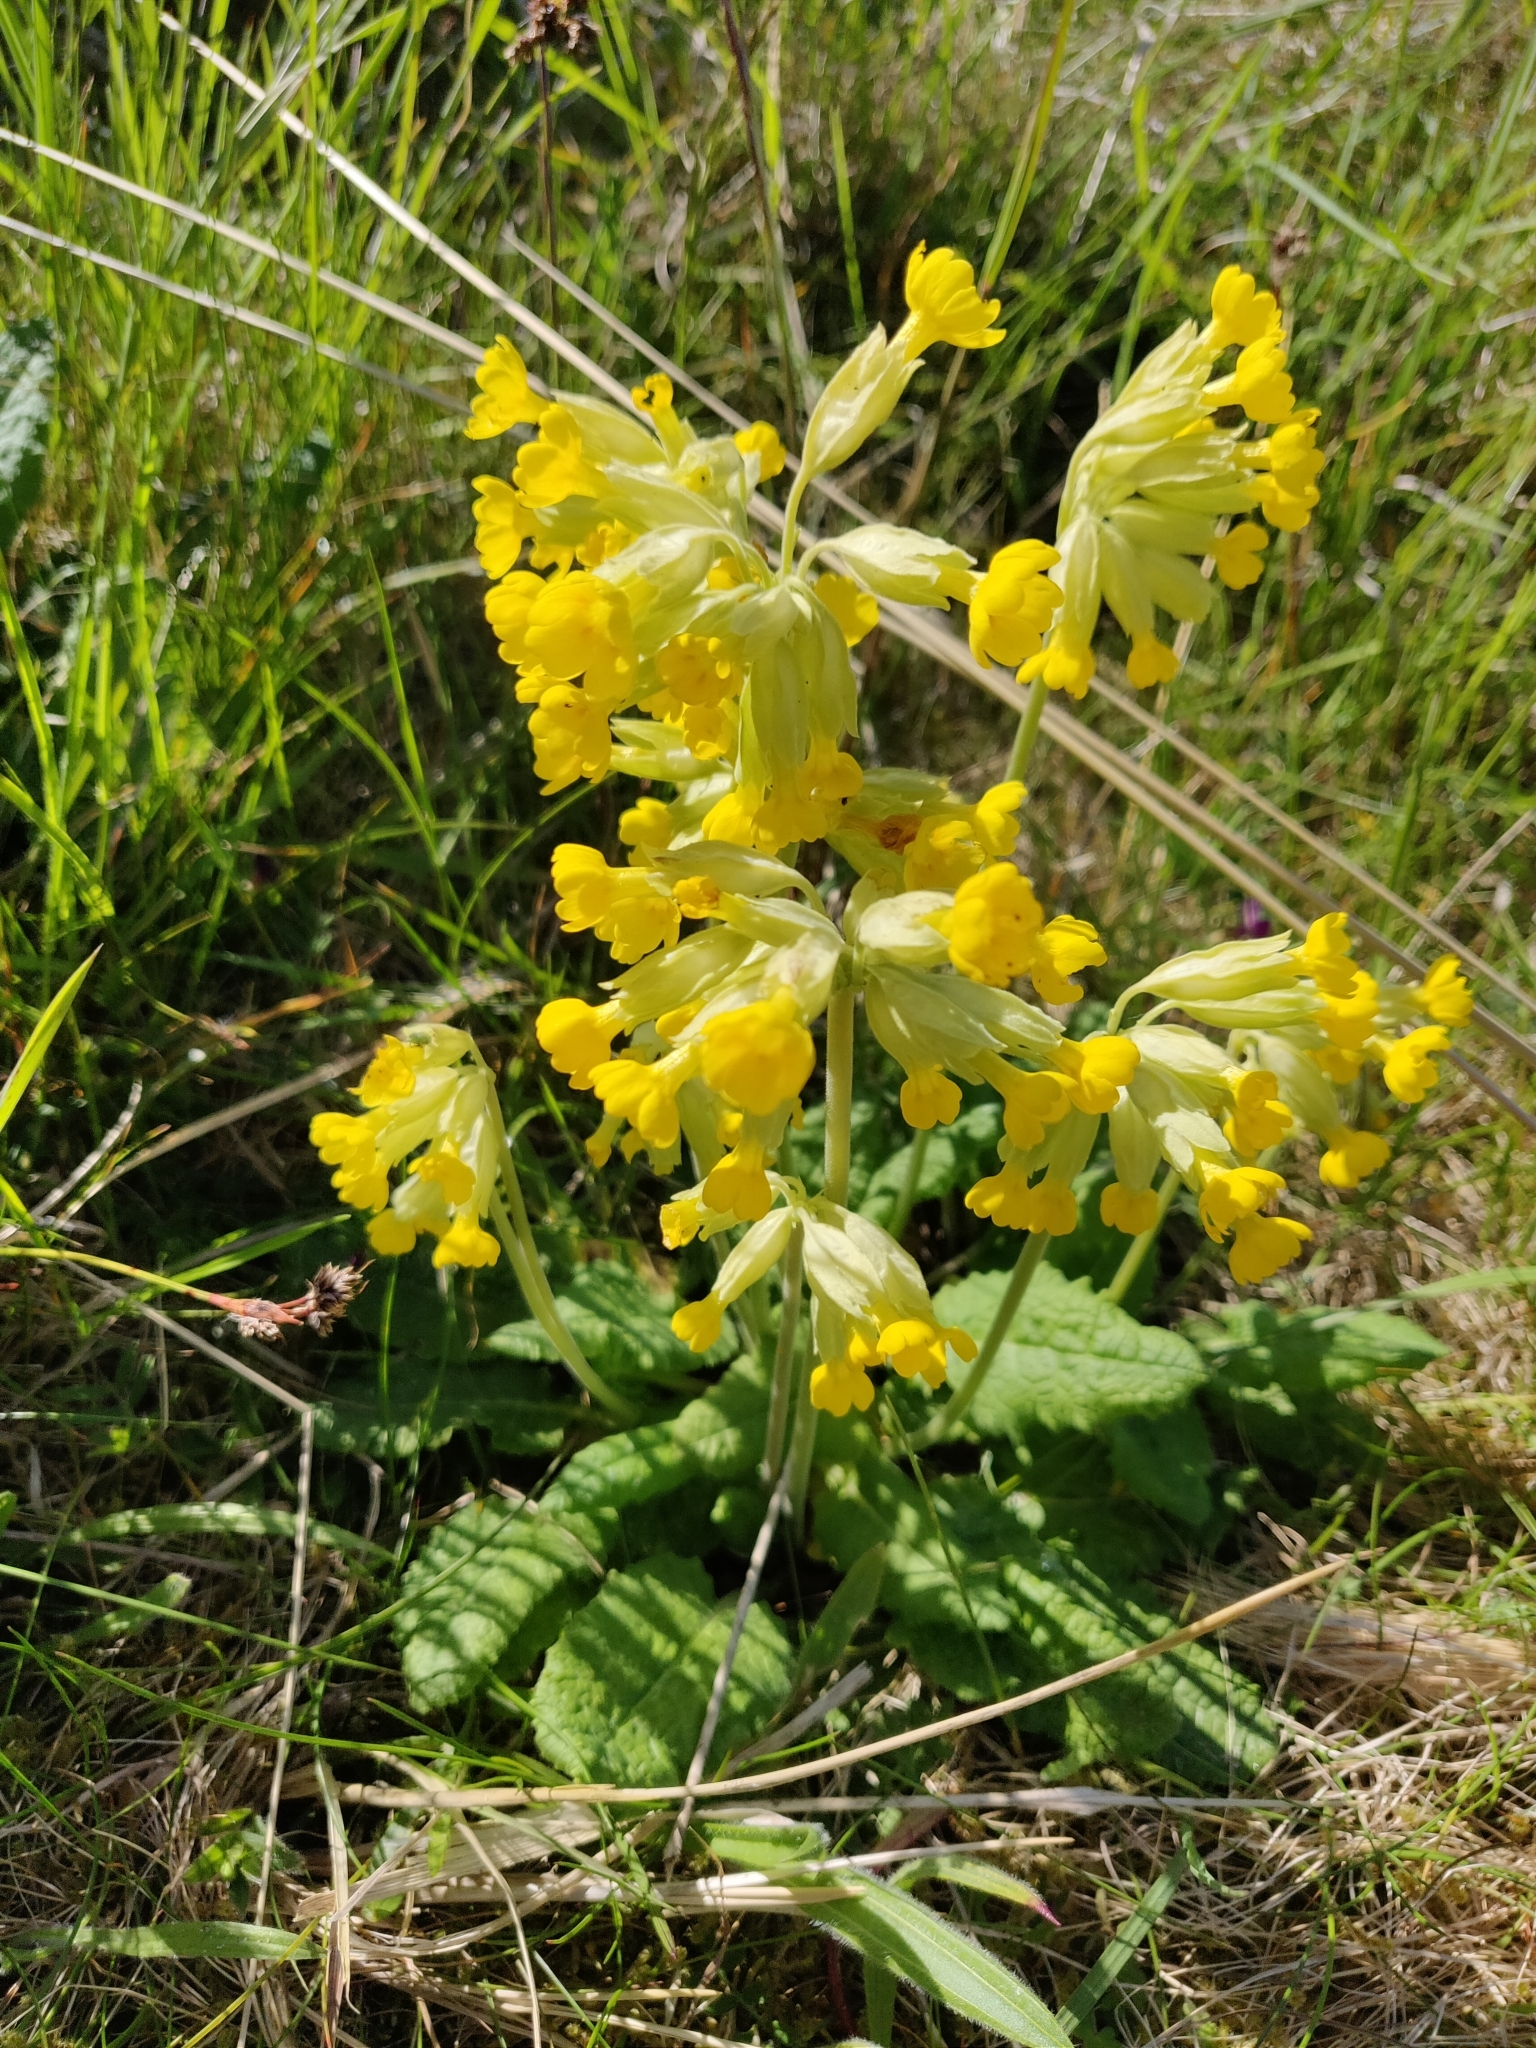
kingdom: Plantae
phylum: Tracheophyta
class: Magnoliopsida
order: Ericales
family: Primulaceae
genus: Primula
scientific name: Primula veris
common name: Cowslip
